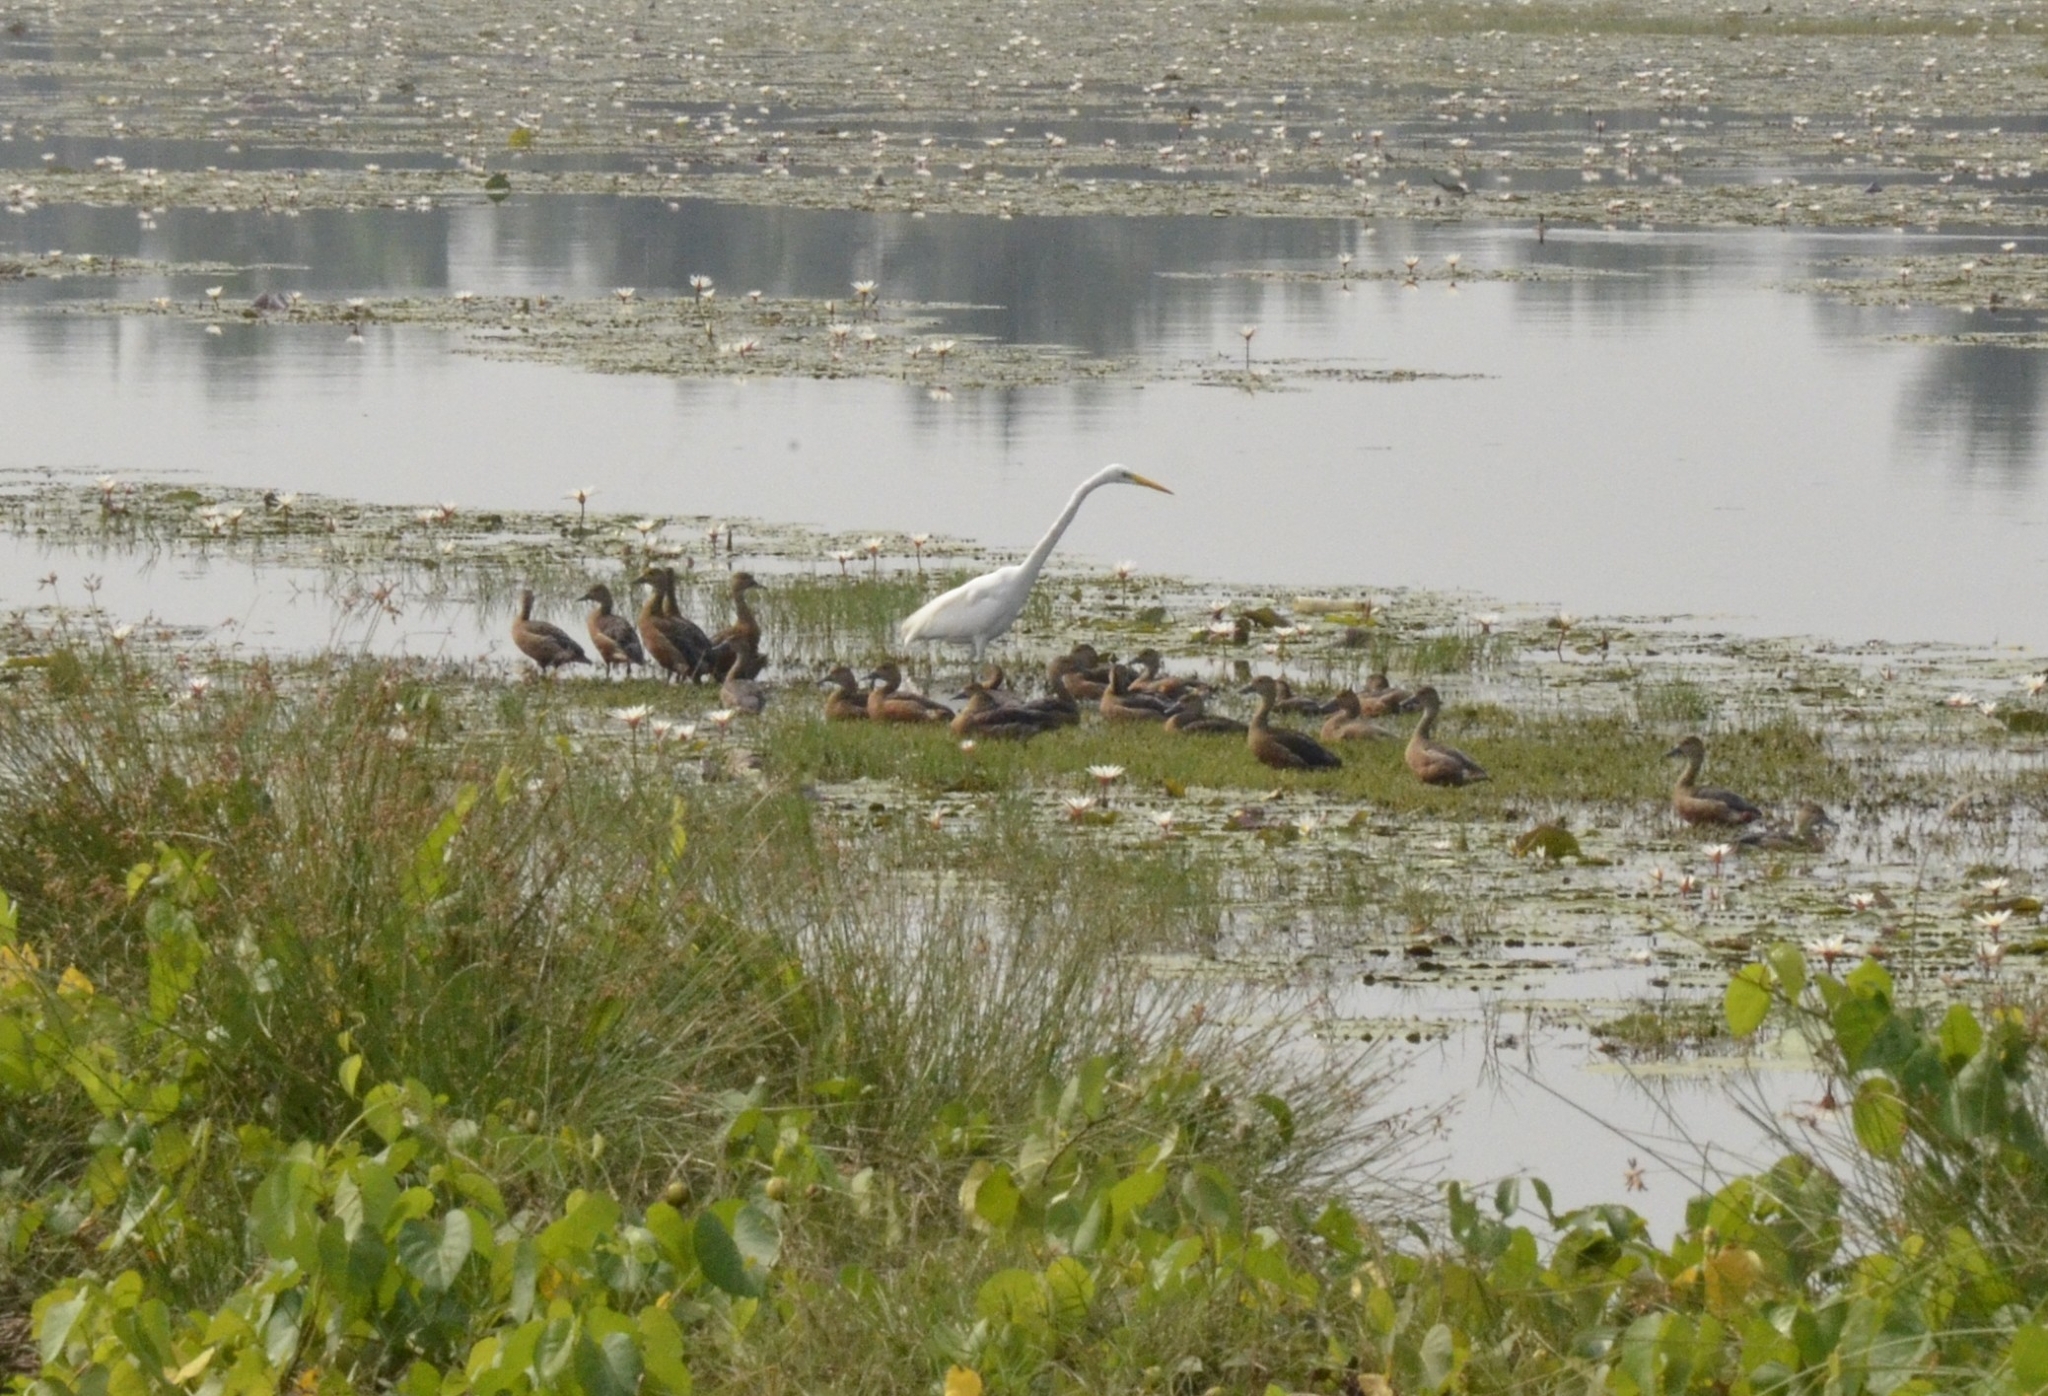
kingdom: Animalia
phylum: Chordata
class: Aves
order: Pelecaniformes
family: Ardeidae
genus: Ardea
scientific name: Ardea alba
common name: Great egret
